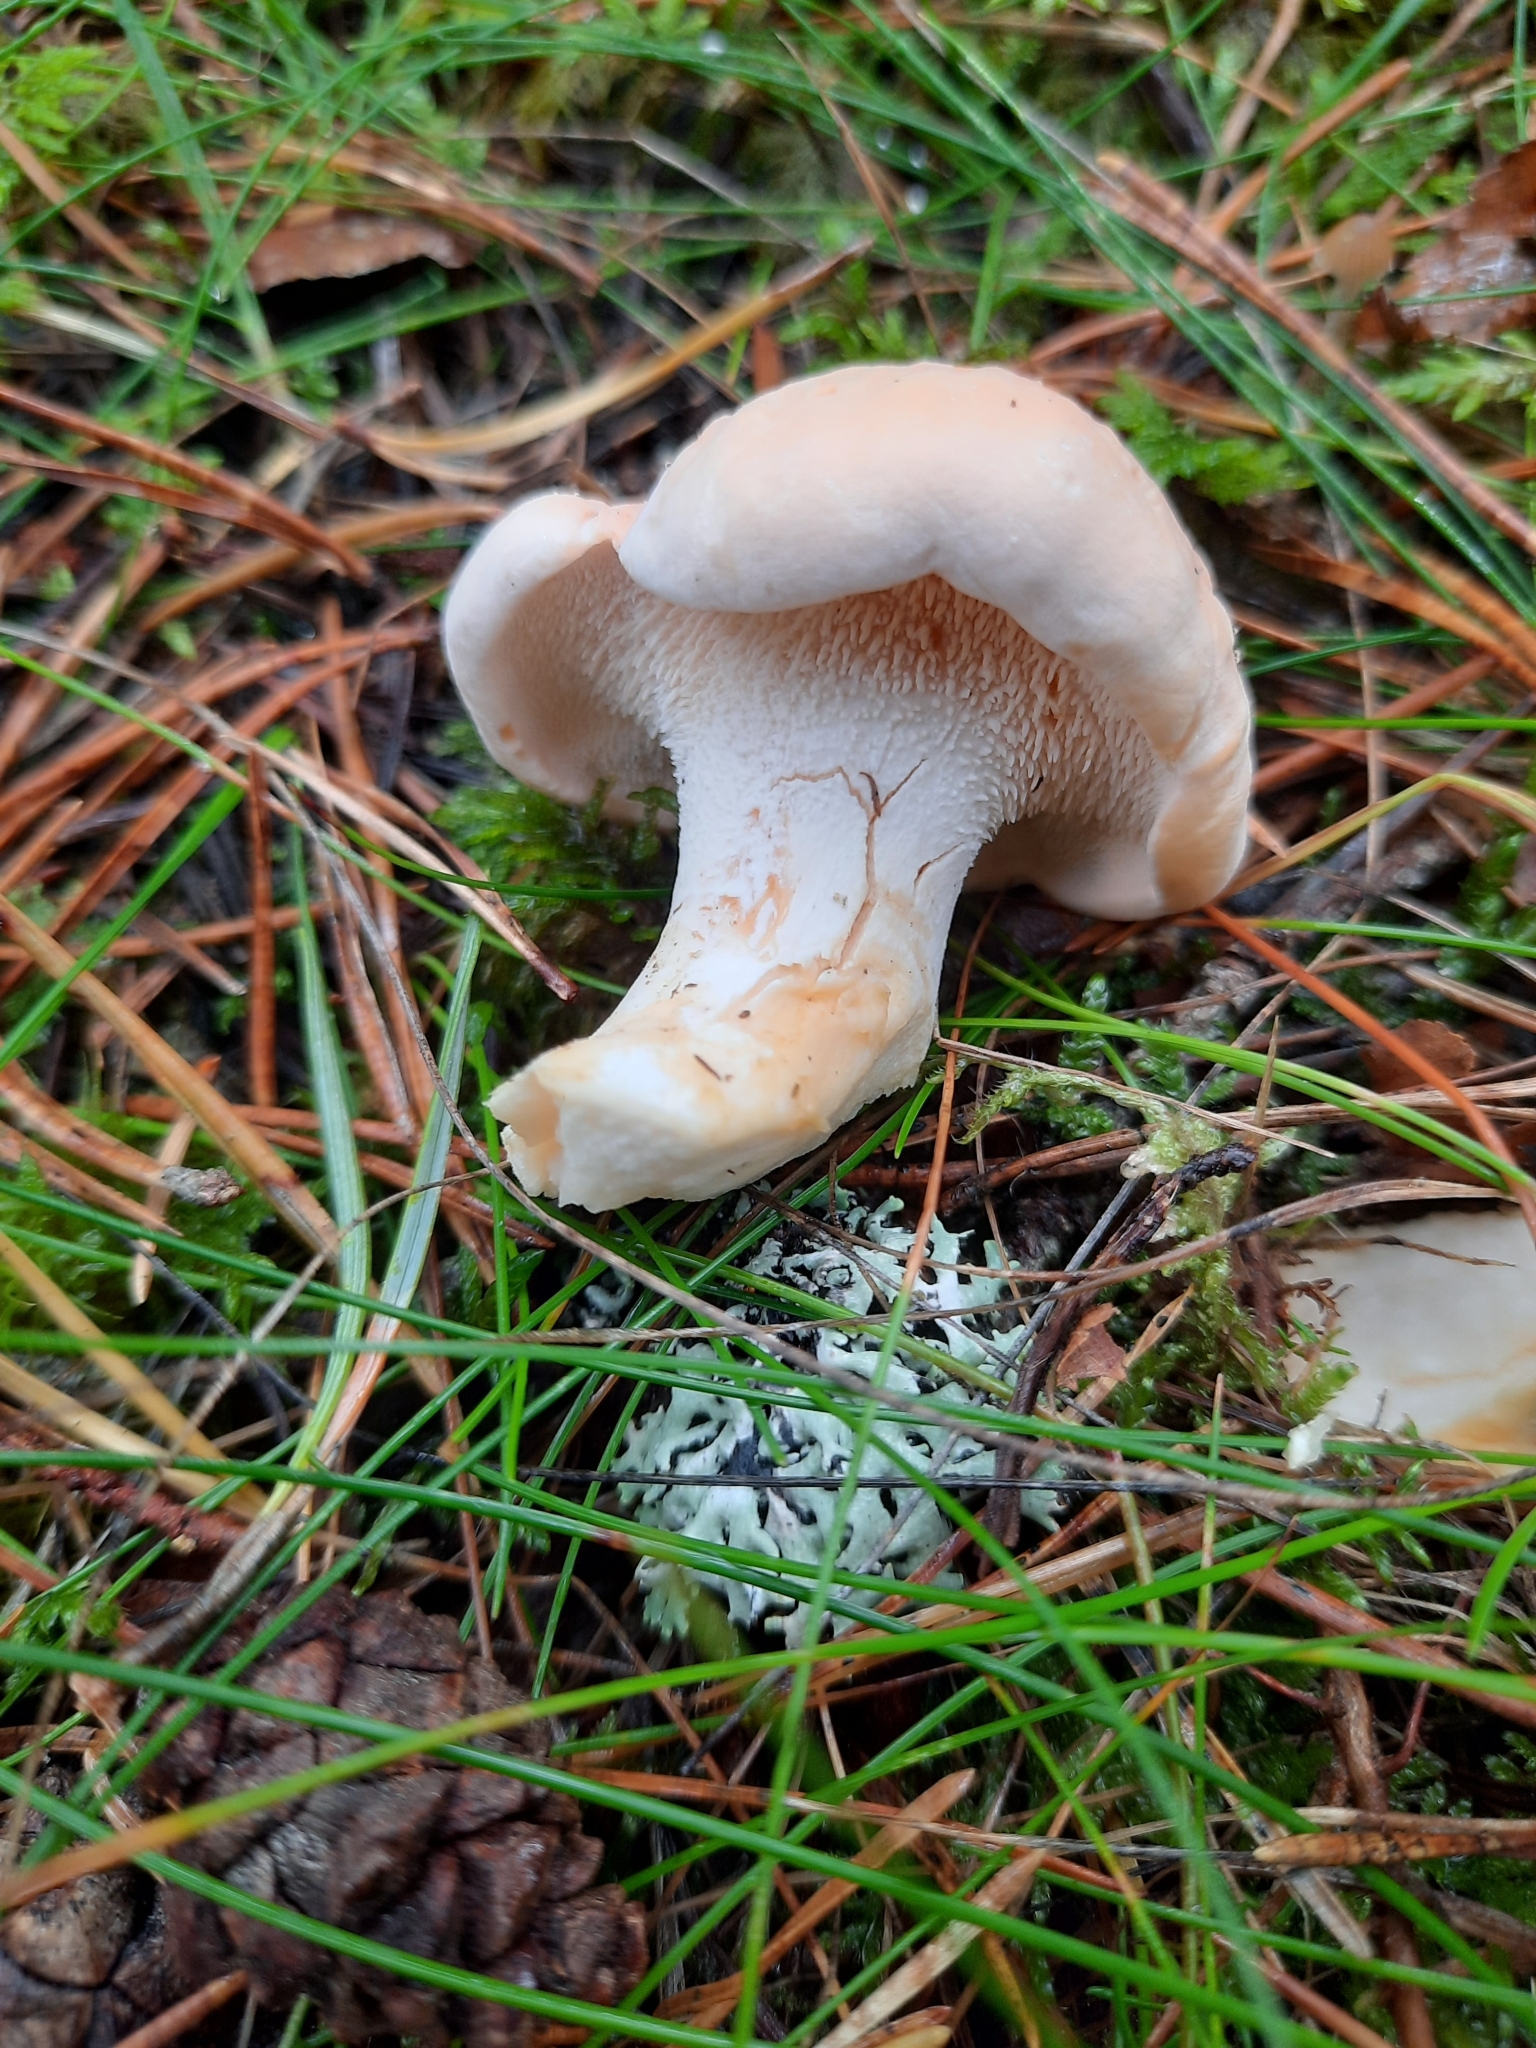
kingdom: Fungi
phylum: Basidiomycota
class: Agaricomycetes
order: Cantharellales
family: Hydnaceae
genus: Hydnum
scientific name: Hydnum repandum
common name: Wood hedgehog
